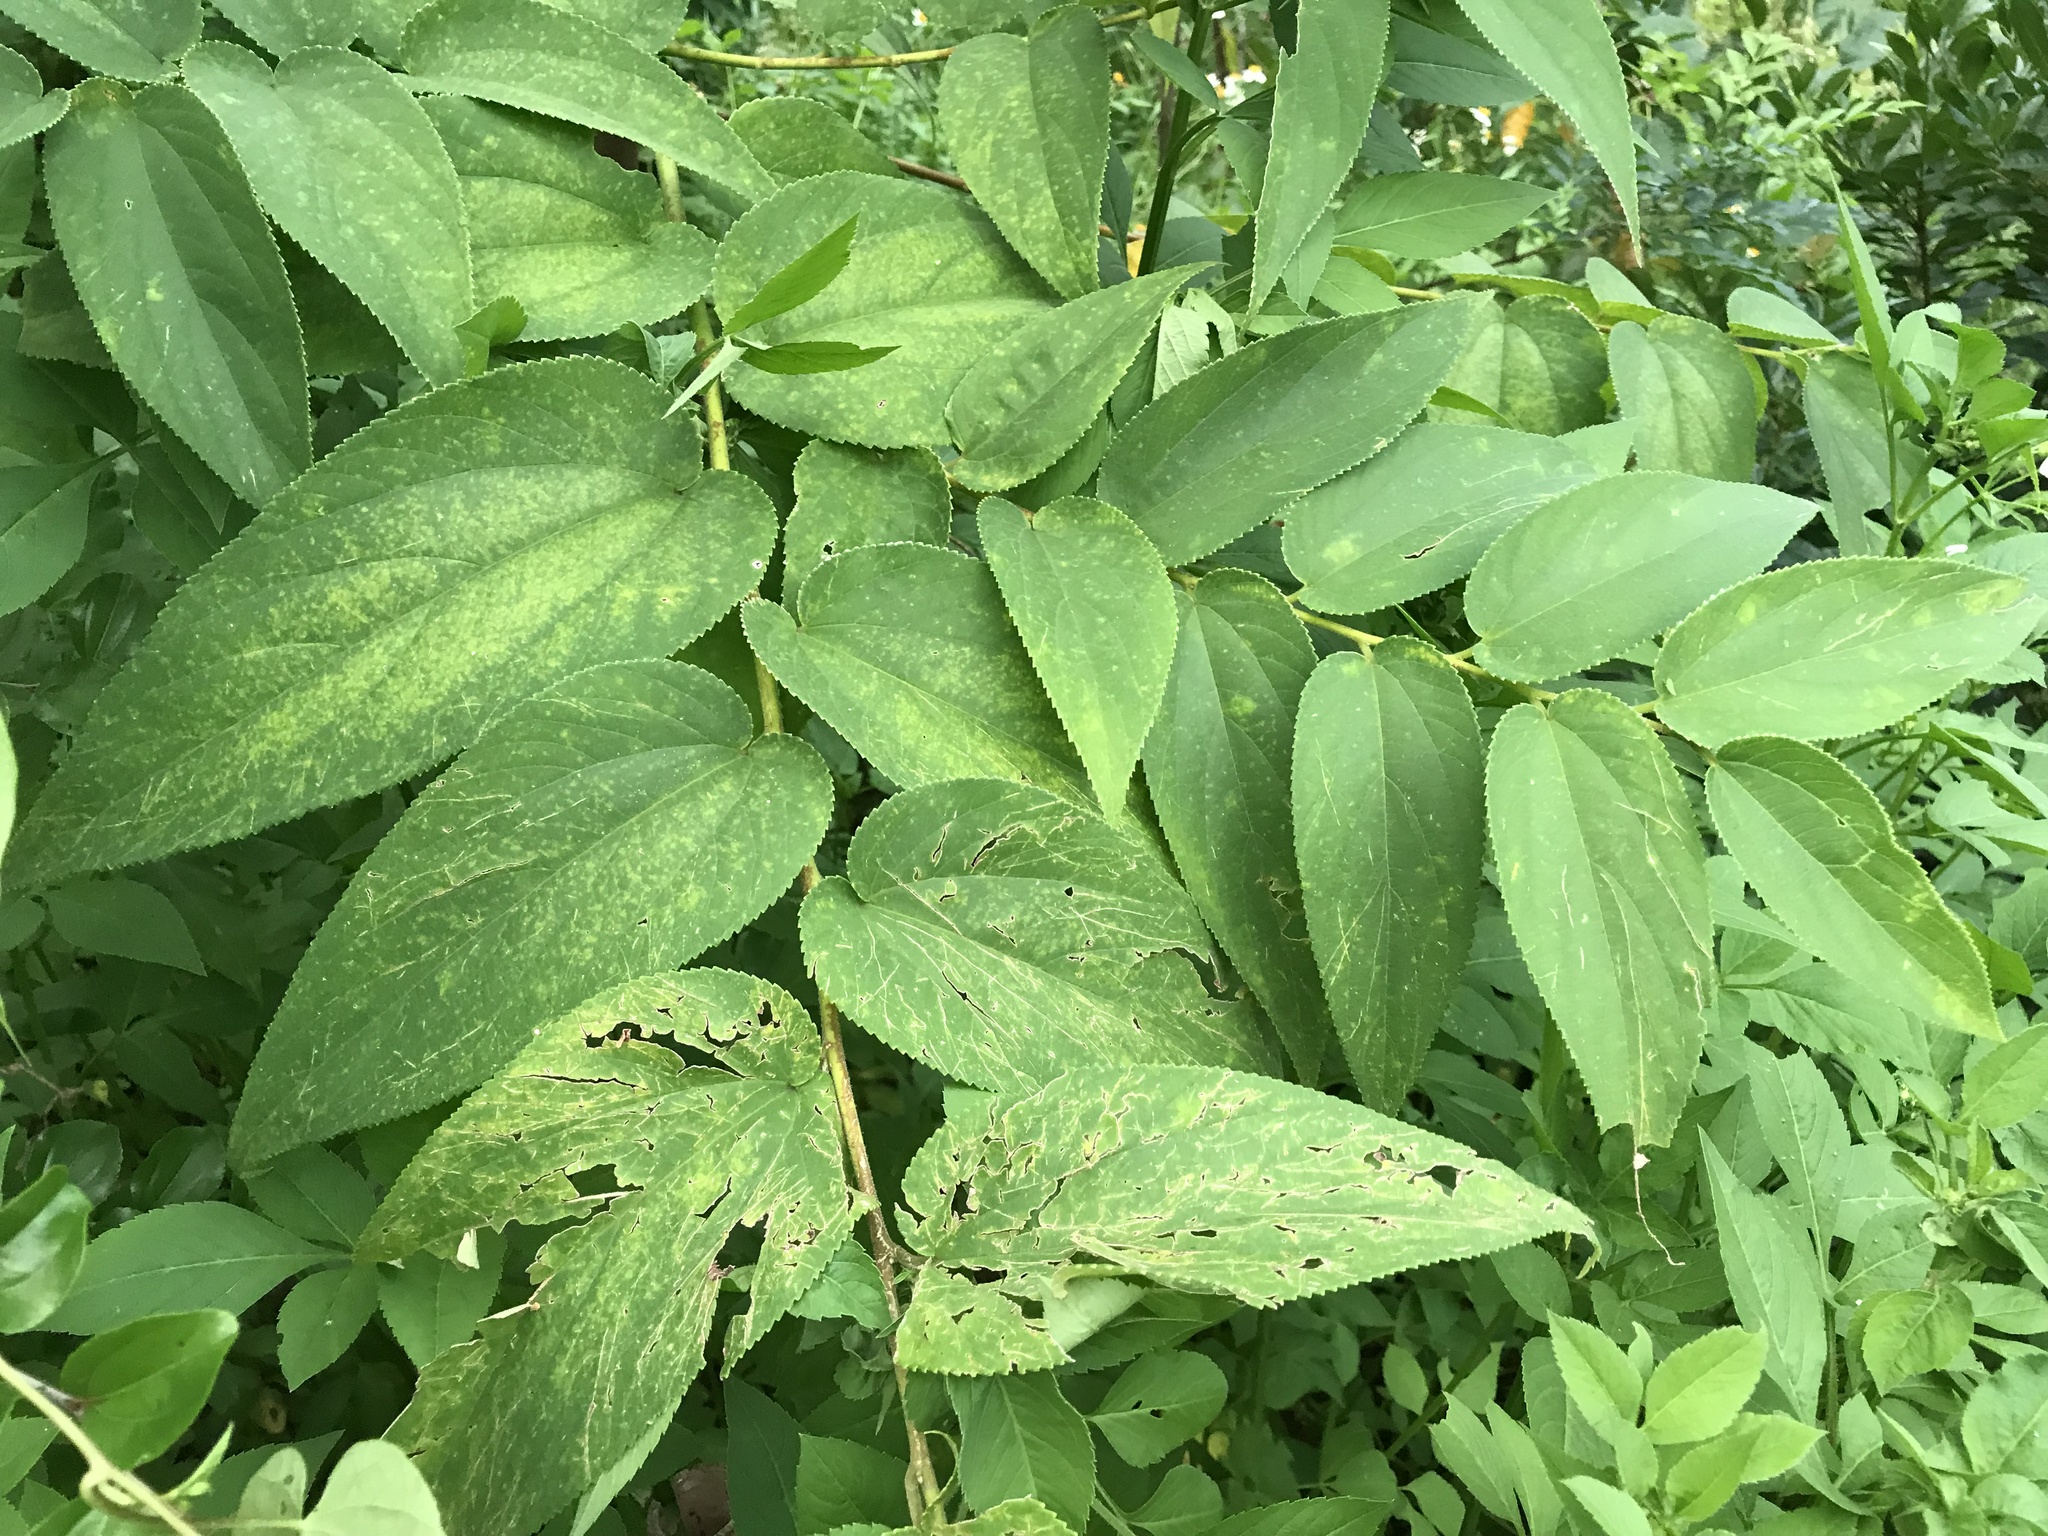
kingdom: Plantae
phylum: Tracheophyta
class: Magnoliopsida
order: Rosales
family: Cannabaceae
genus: Trema
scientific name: Trema orientale
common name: Indian charcoal tree
